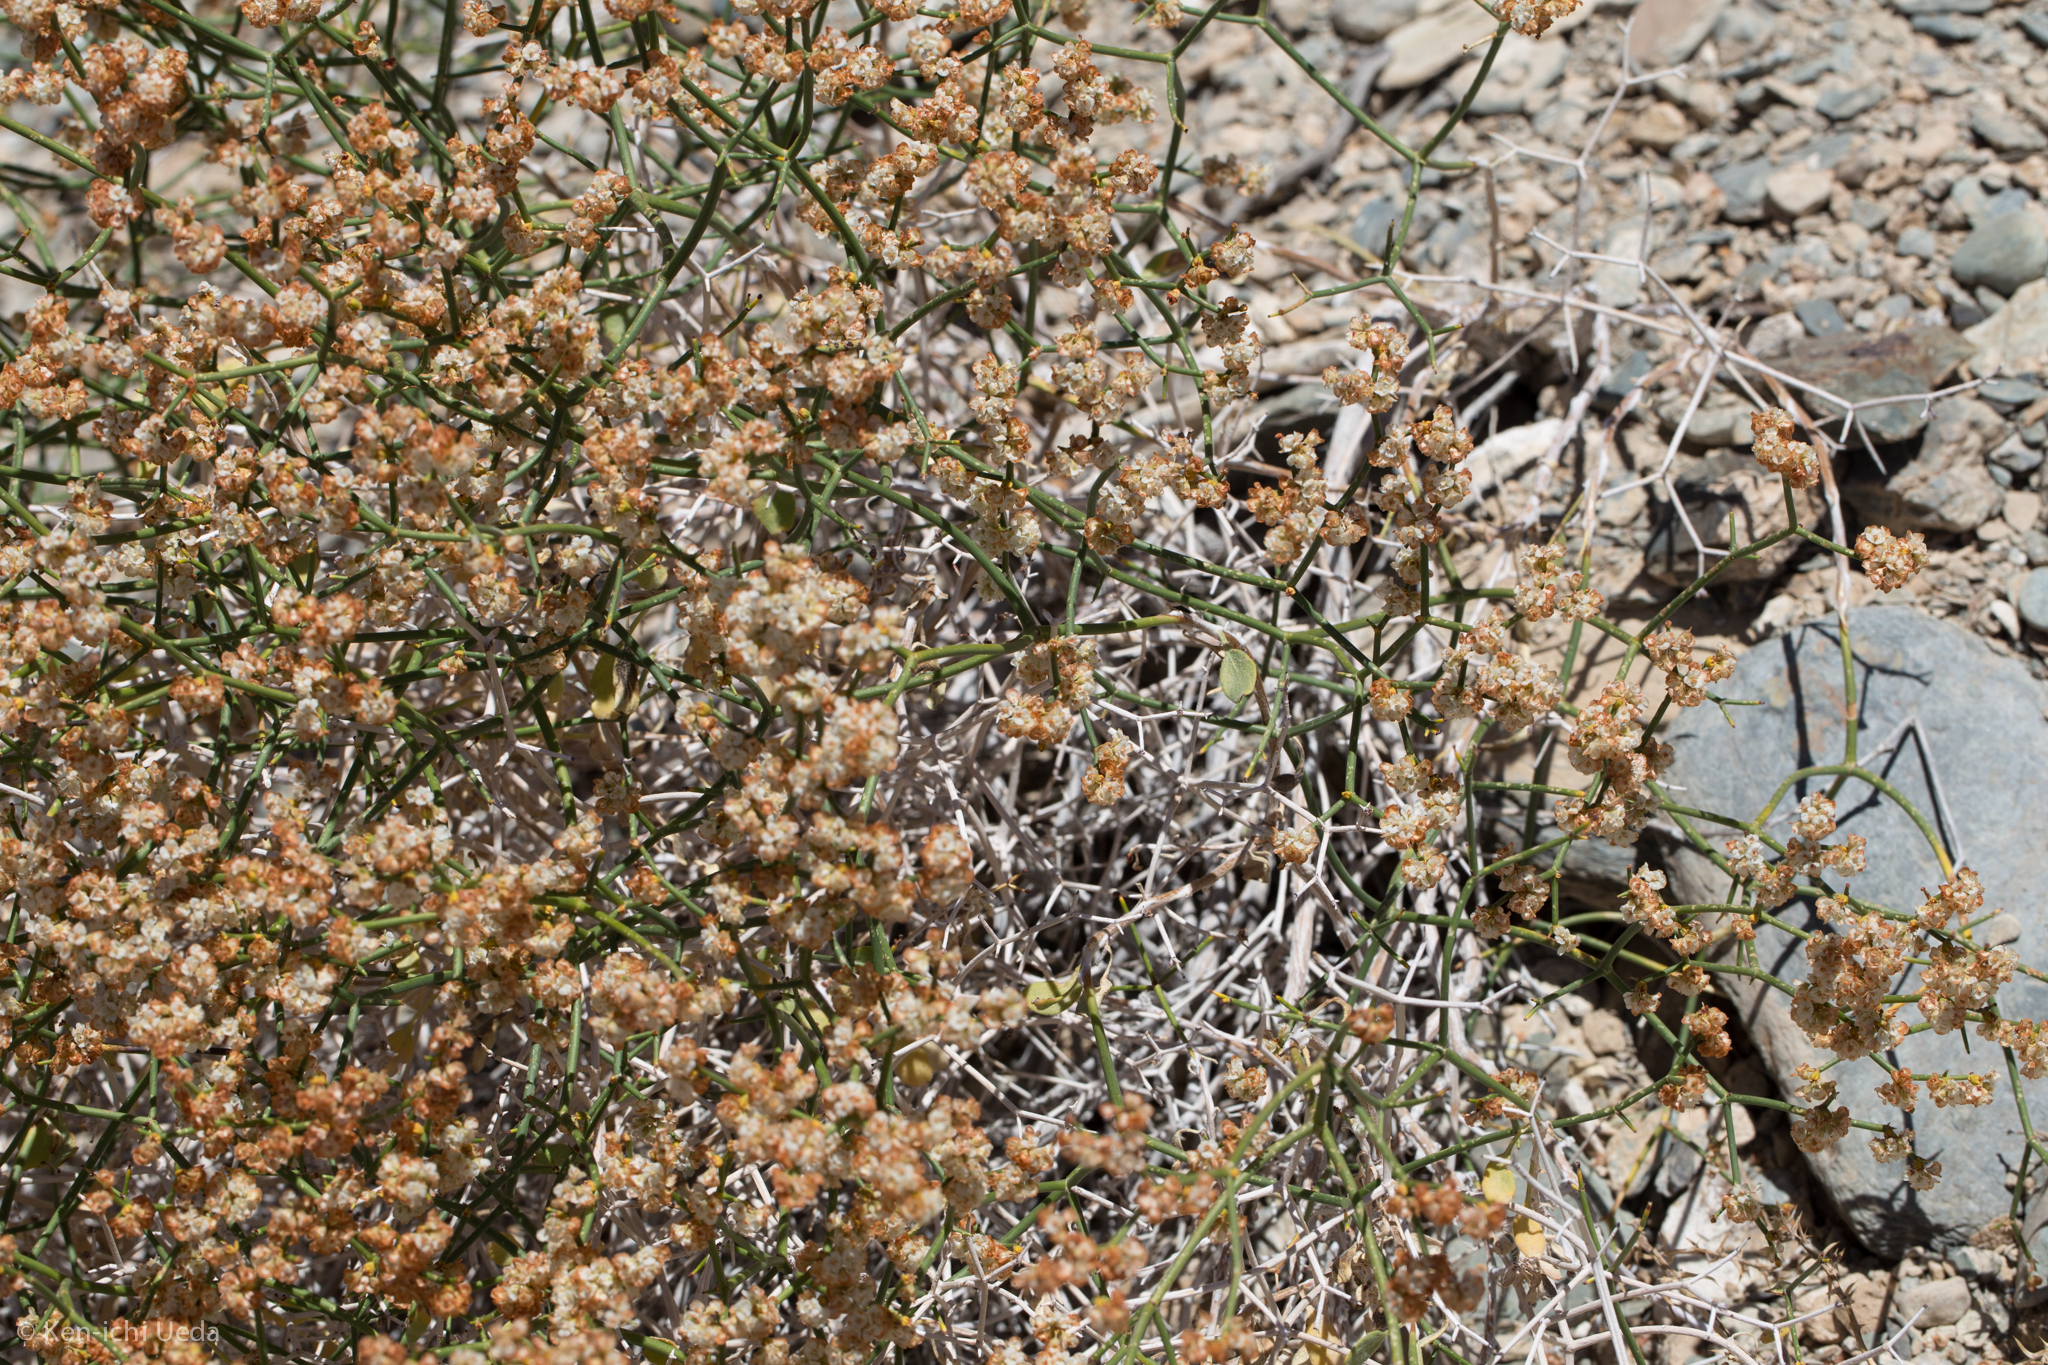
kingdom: Plantae
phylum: Tracheophyta
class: Magnoliopsida
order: Caryophyllales
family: Polygonaceae
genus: Eriogonum
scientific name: Eriogonum heermannii
